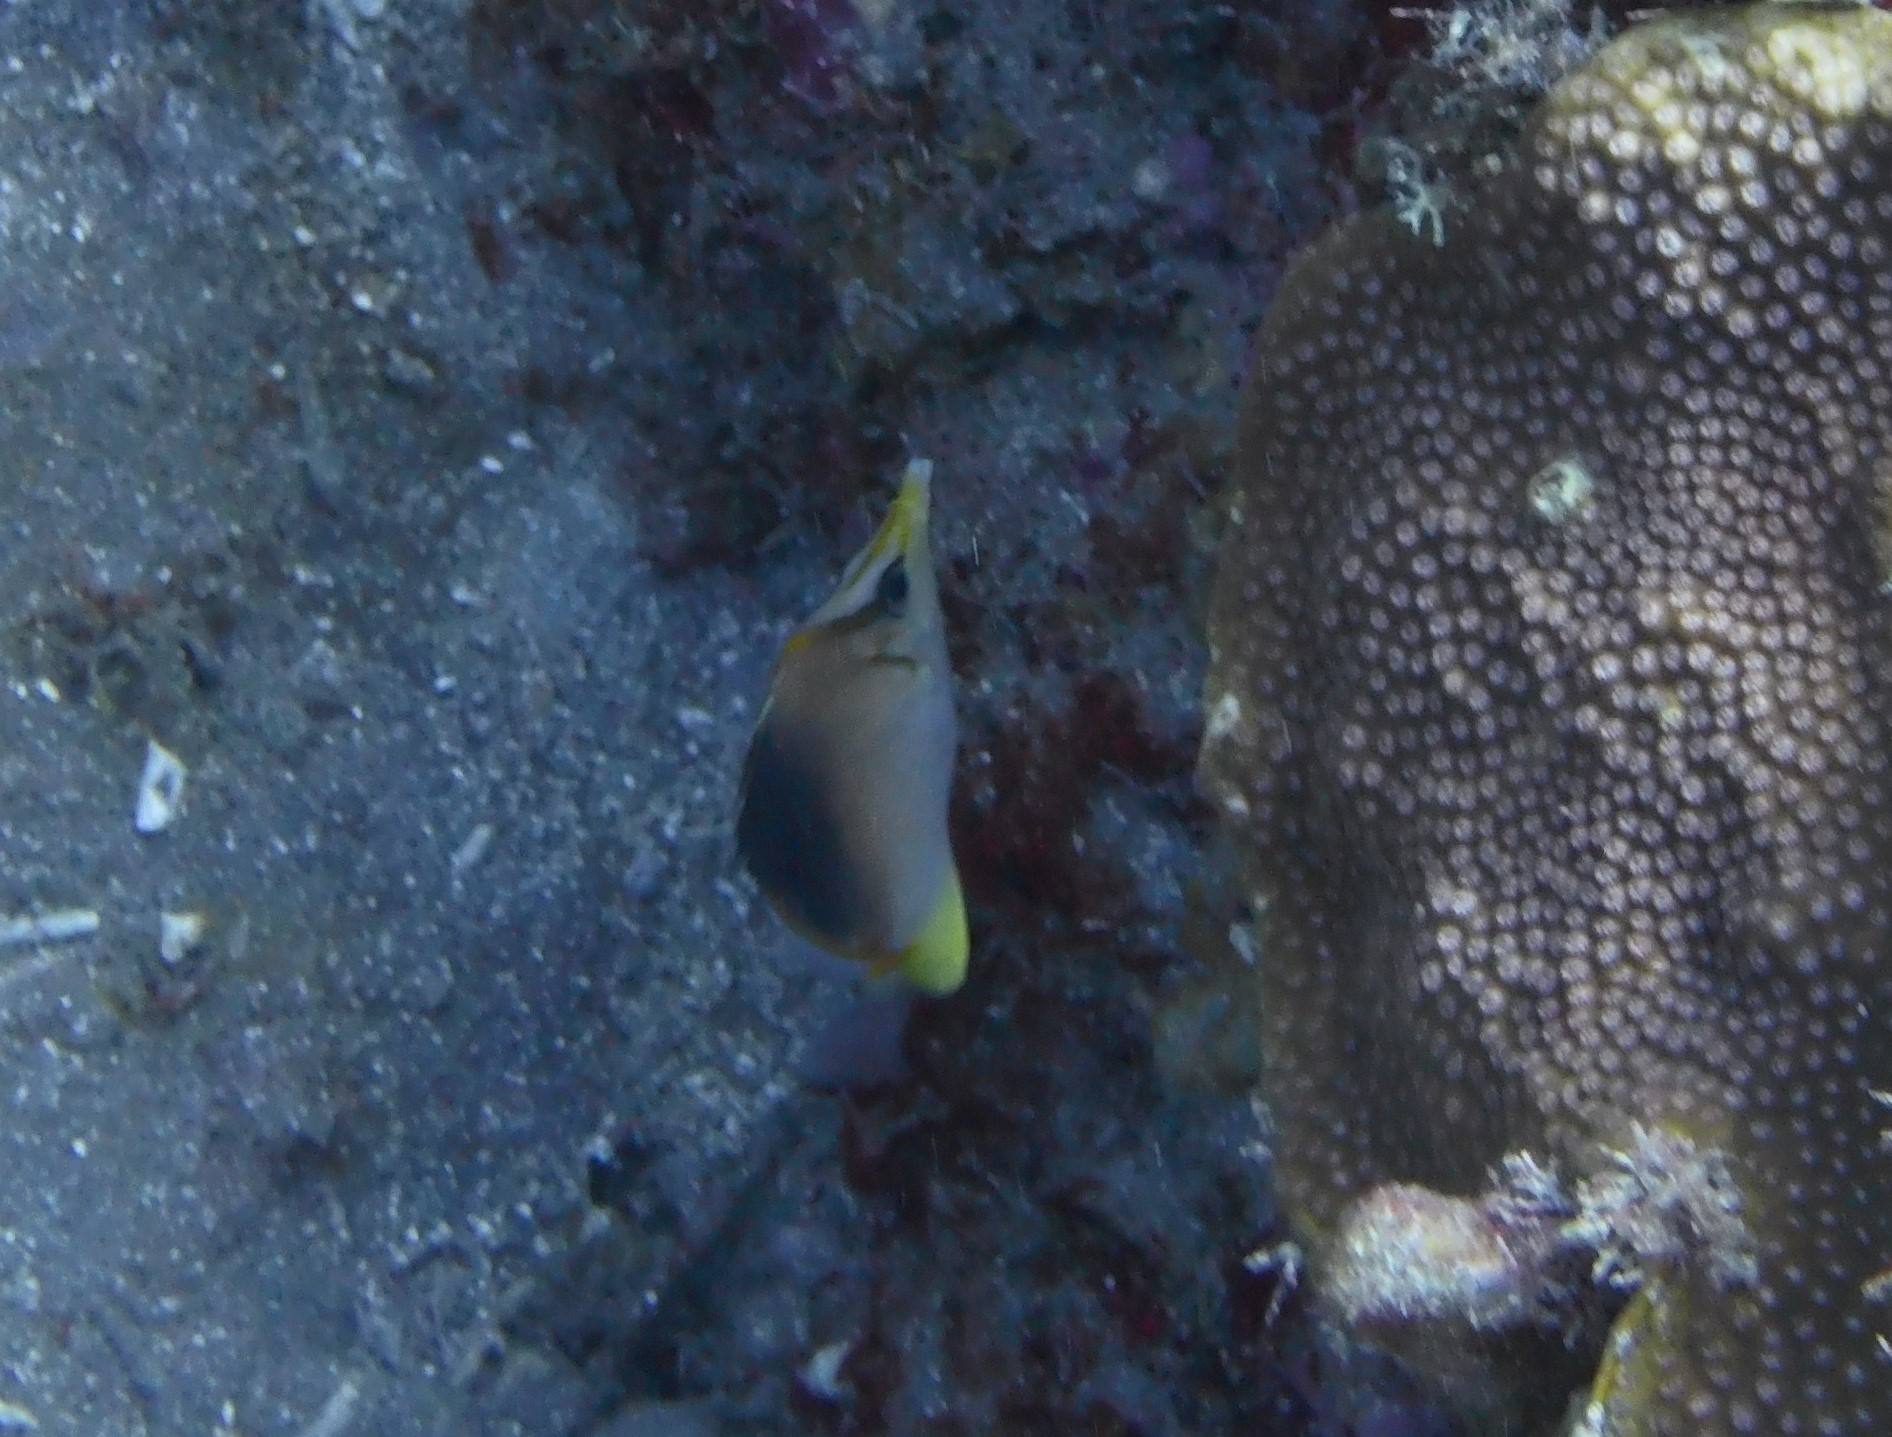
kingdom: Animalia
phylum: Chordata
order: Perciformes
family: Chaetodontidae
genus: Prognathodes
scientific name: Prognathodes aculeatus
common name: Longsnout butterflyfish
